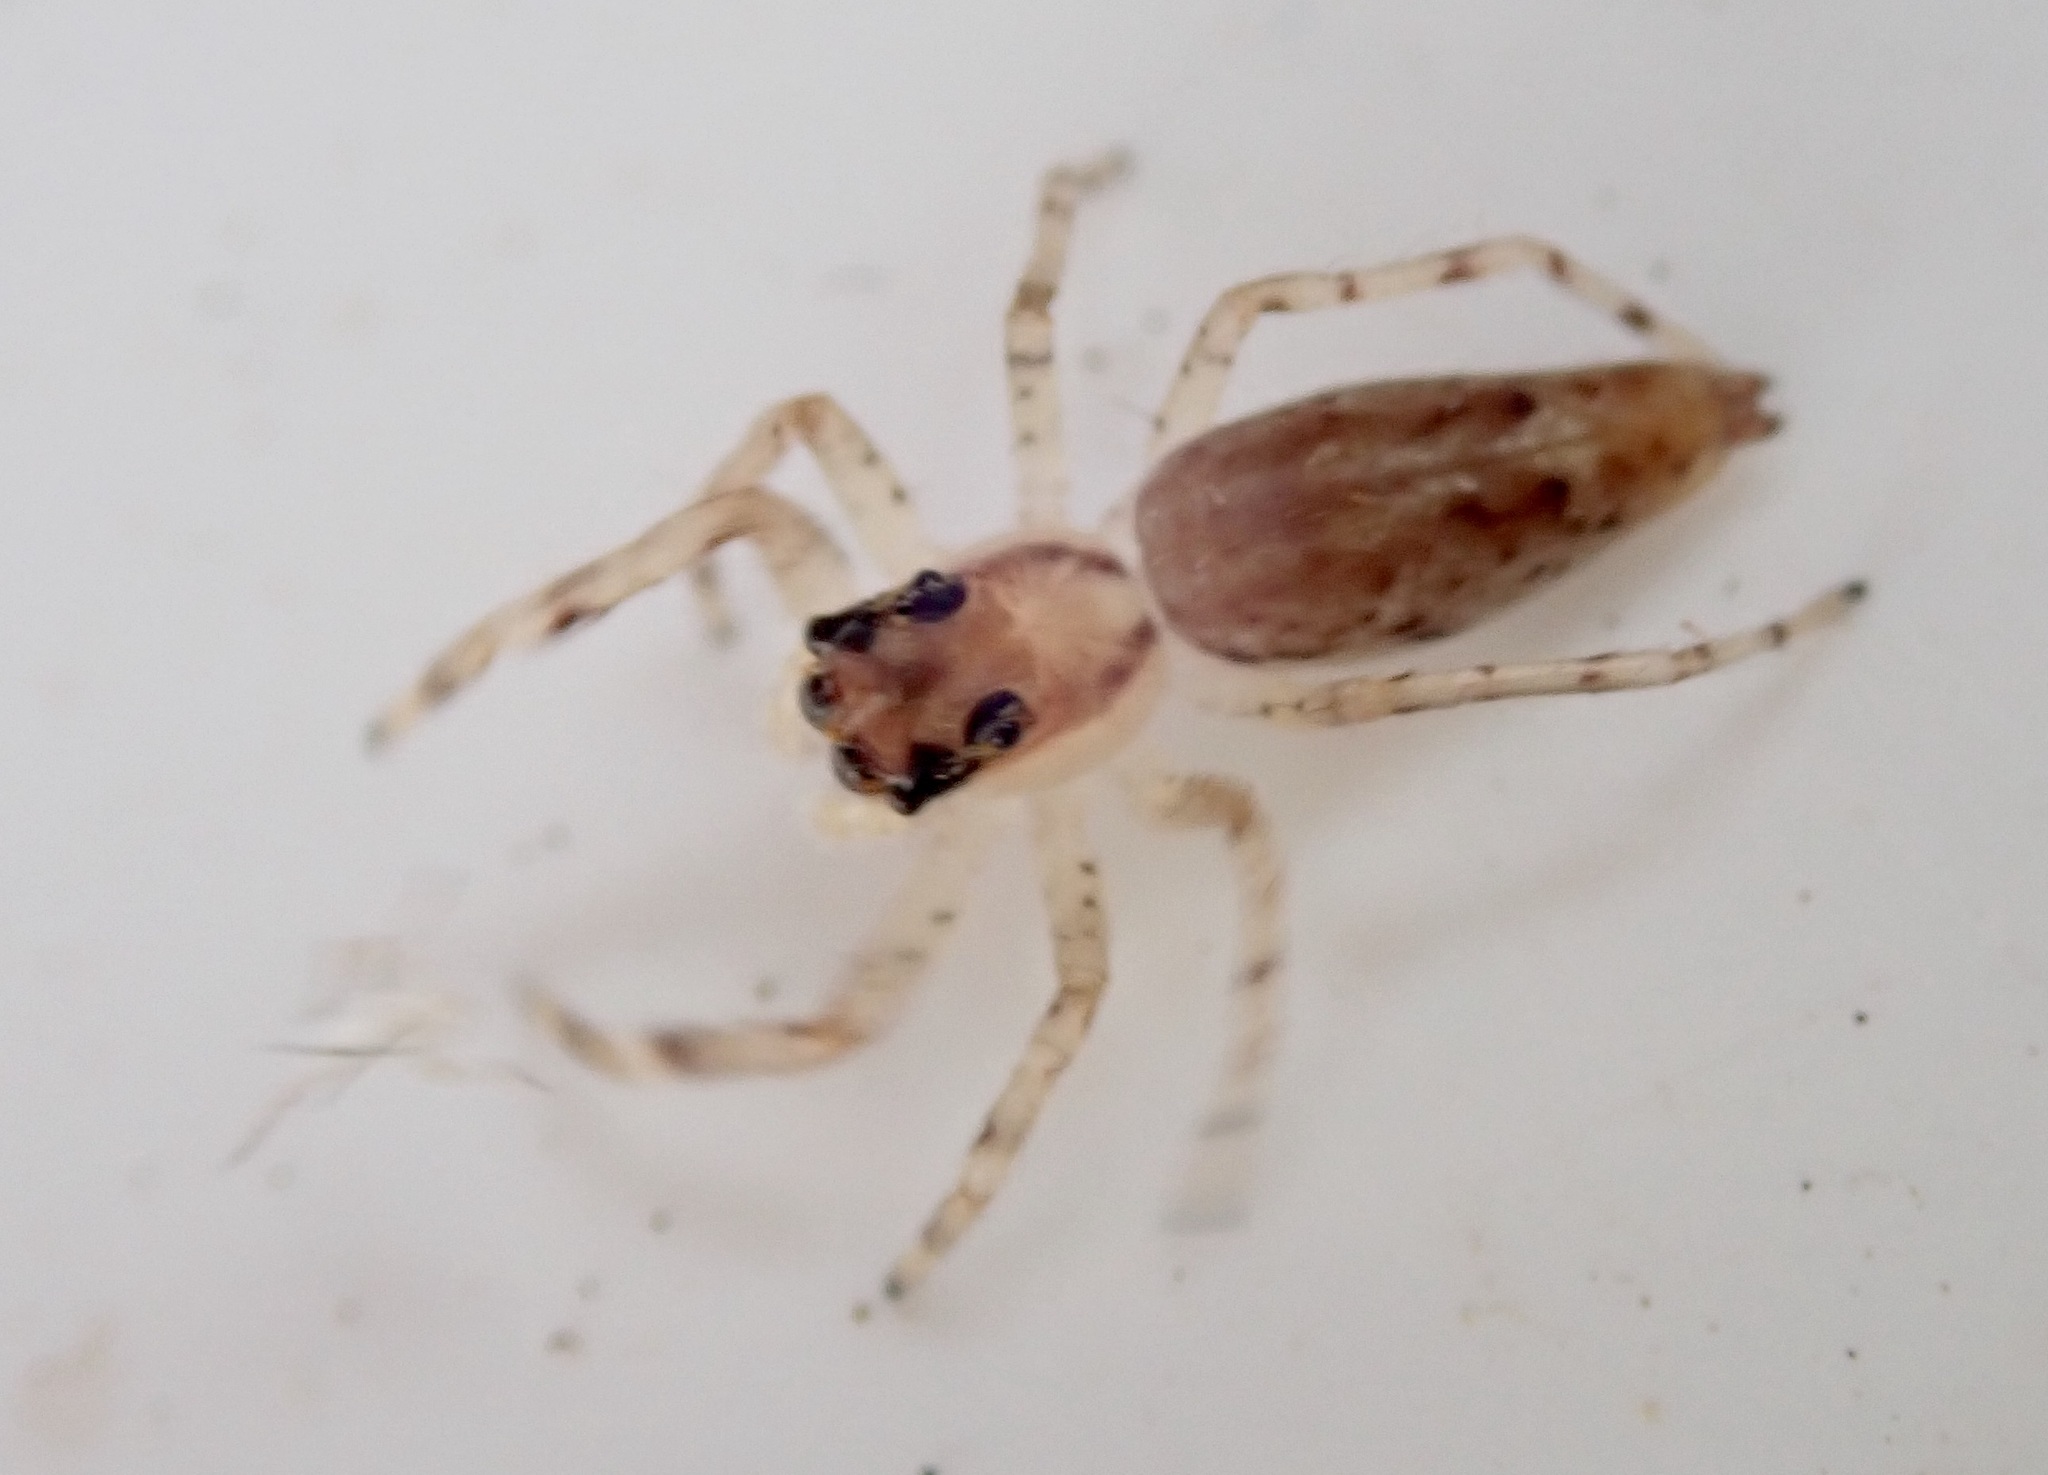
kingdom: Animalia
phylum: Arthropoda
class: Arachnida
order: Araneae
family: Salticidae
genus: Helpis
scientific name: Helpis minitabunda
